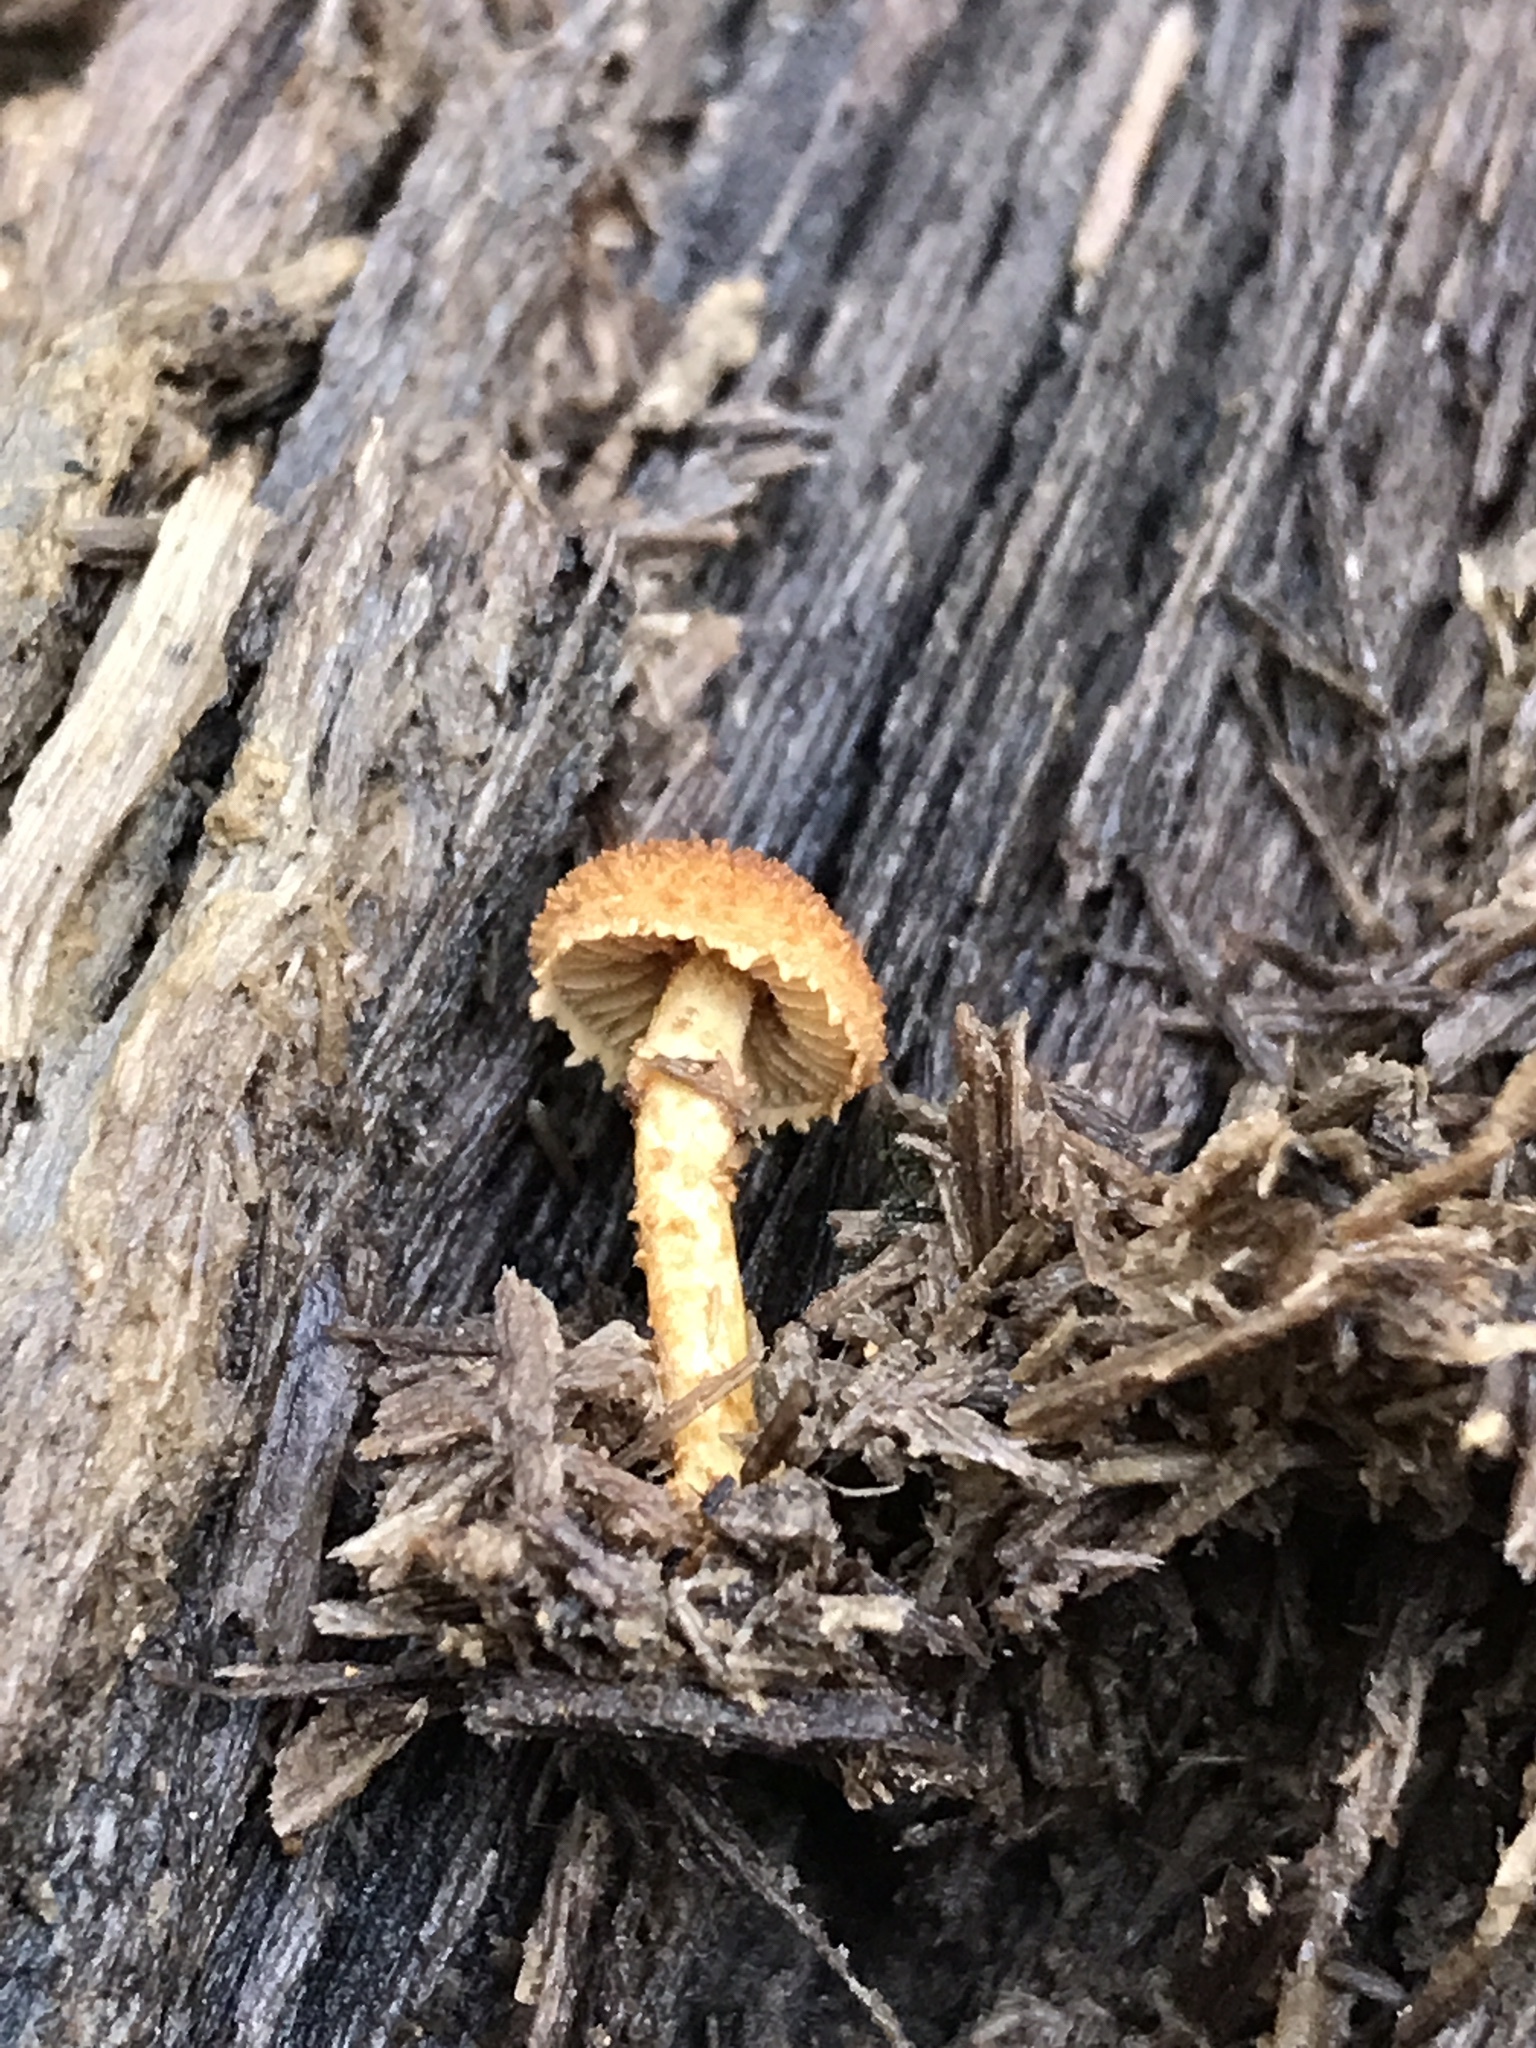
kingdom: Fungi
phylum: Basidiomycota
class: Agaricomycetes
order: Agaricales
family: Tubariaceae
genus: Flammulaster
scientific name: Flammulaster erinaceellus
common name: Powder-scale pholiota
